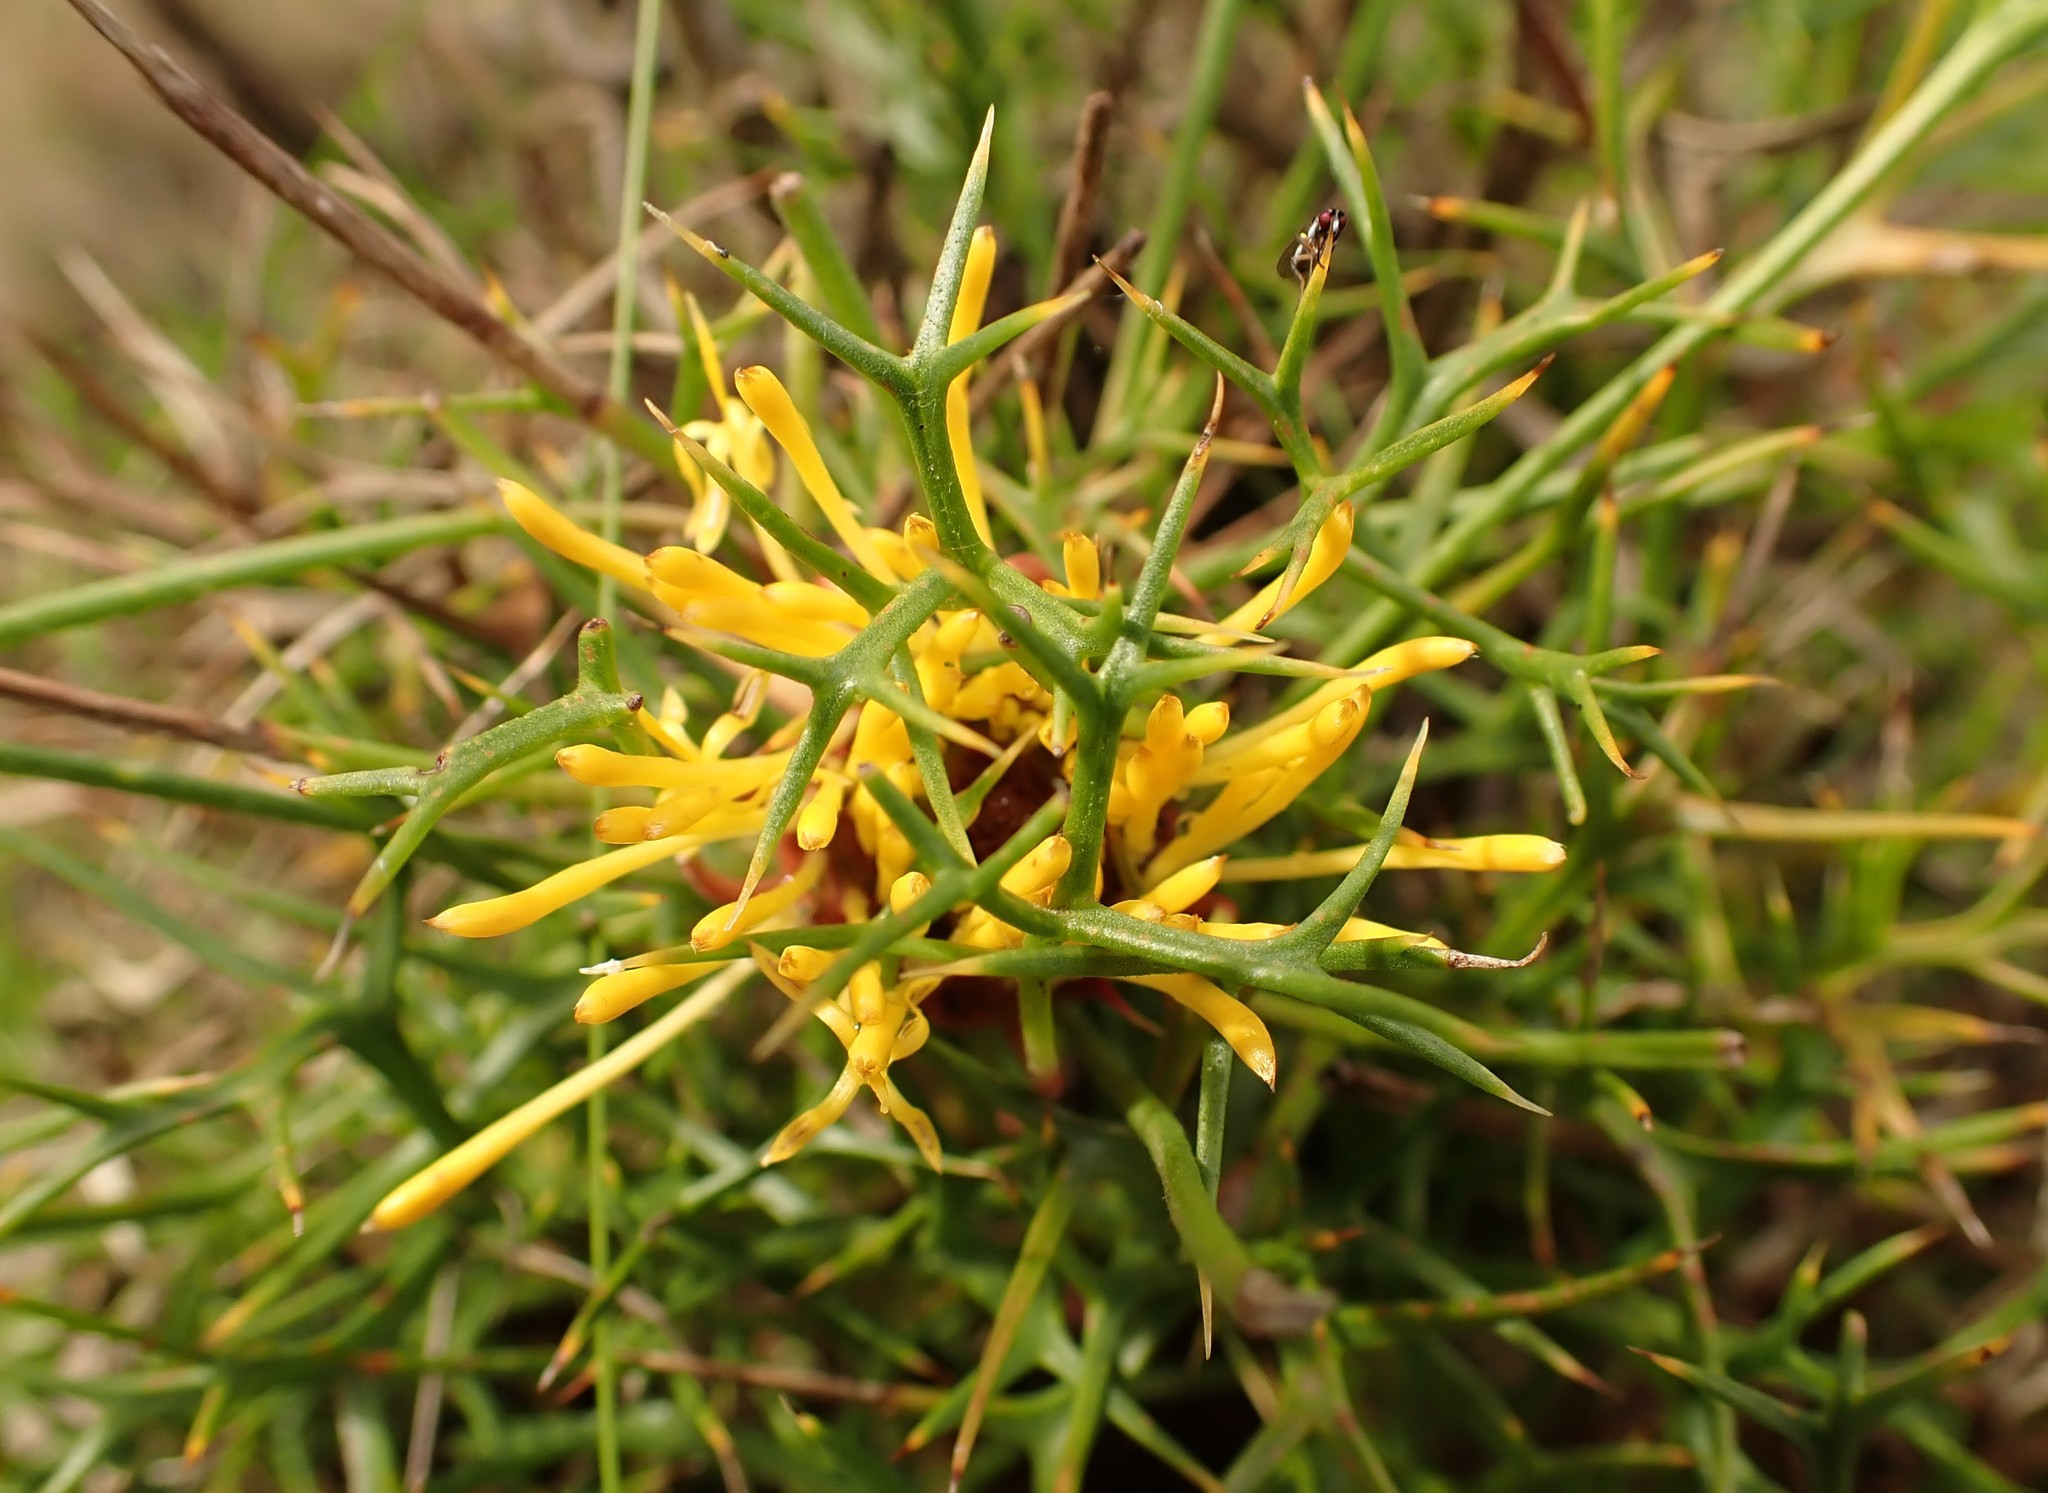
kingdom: Plantae
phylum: Tracheophyta
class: Magnoliopsida
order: Proteales
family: Proteaceae
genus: Isopogon
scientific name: Isopogon ceratophyllus
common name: Horny cone-bush
